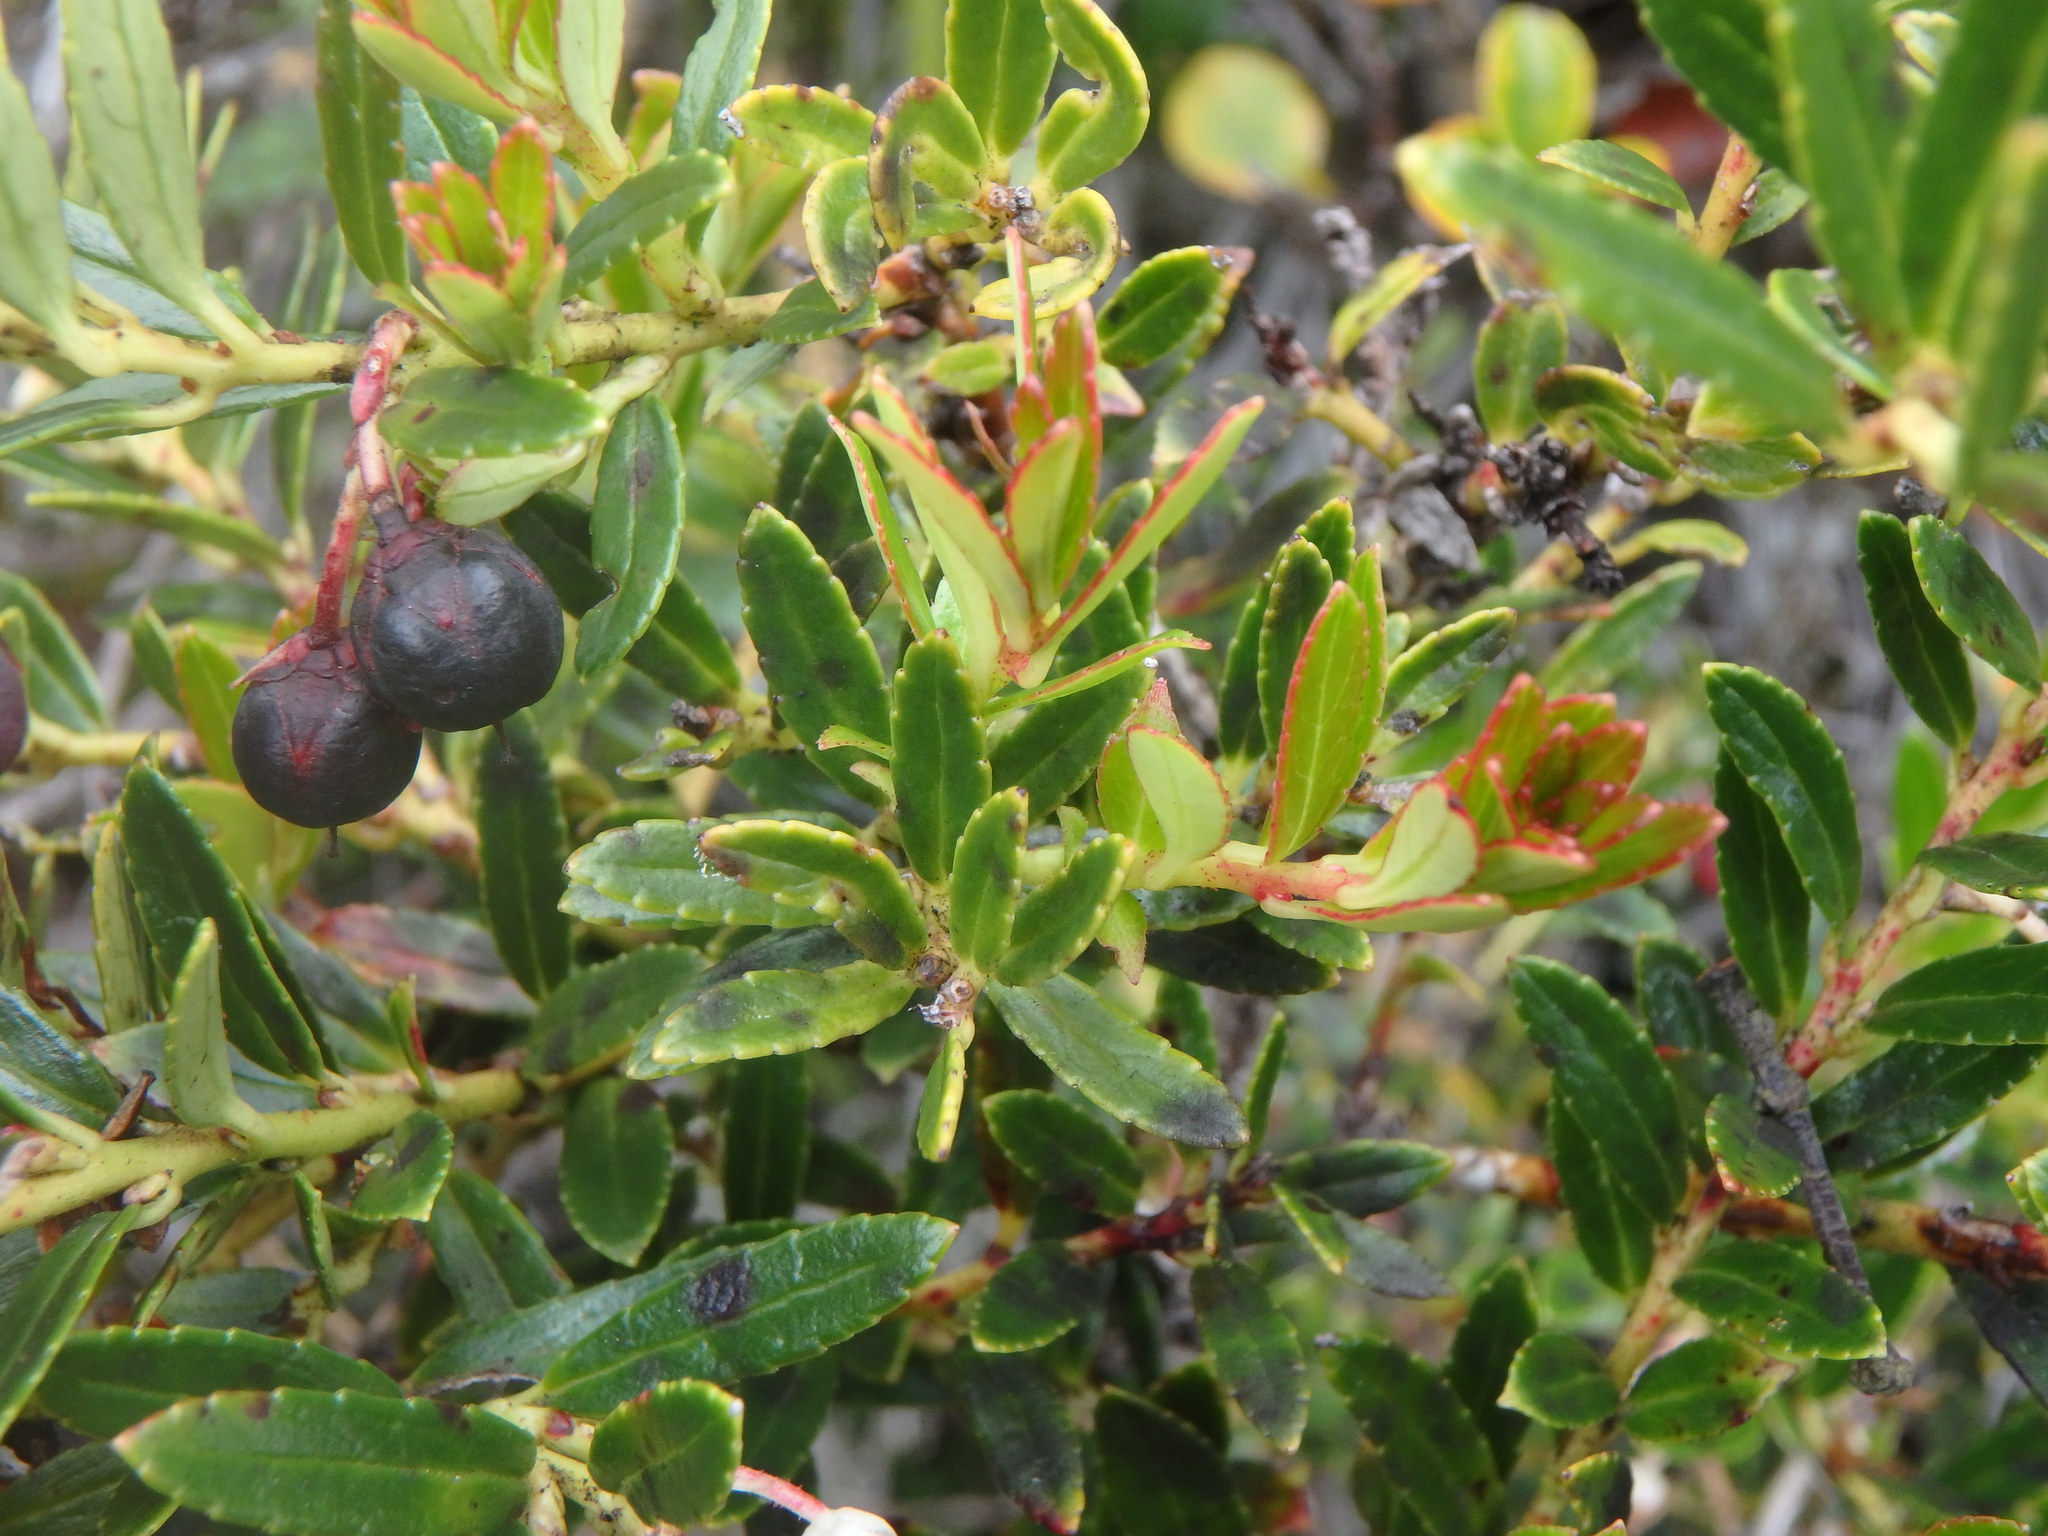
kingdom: Plantae
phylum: Tracheophyta
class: Magnoliopsida
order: Ericales
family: Ericaceae
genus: Gaultheria
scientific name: Gaultheria myrsinoides
